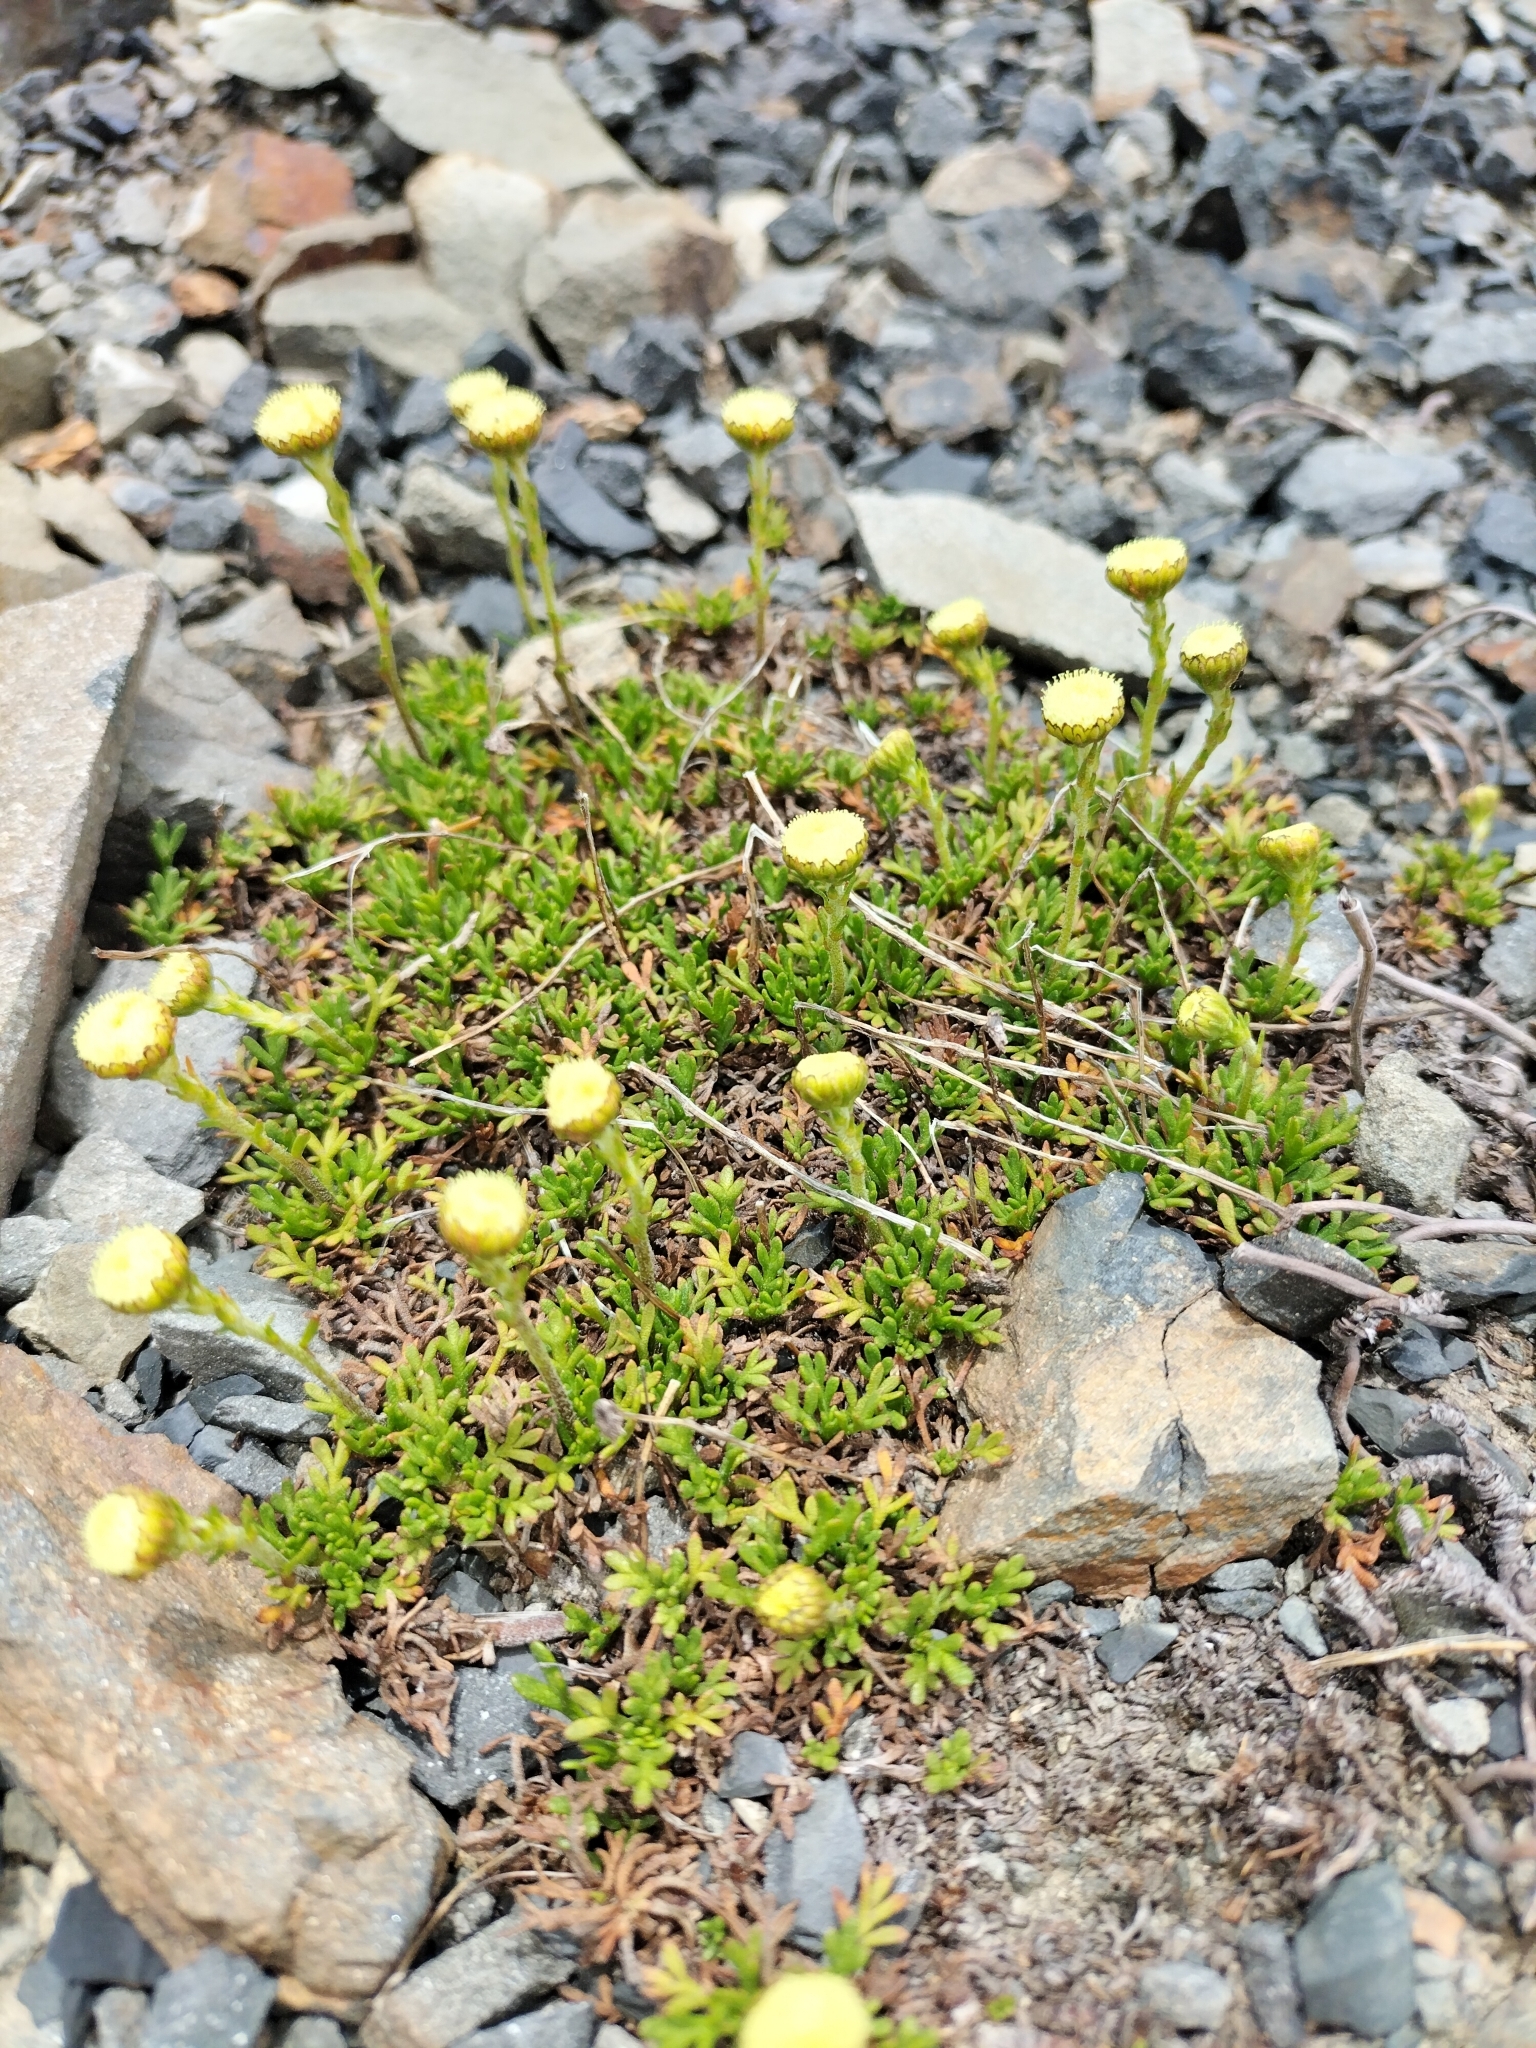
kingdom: Plantae
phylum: Tracheophyta
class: Magnoliopsida
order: Asterales
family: Asteraceae
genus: Leptinella
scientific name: Leptinella pyrethrifolia
